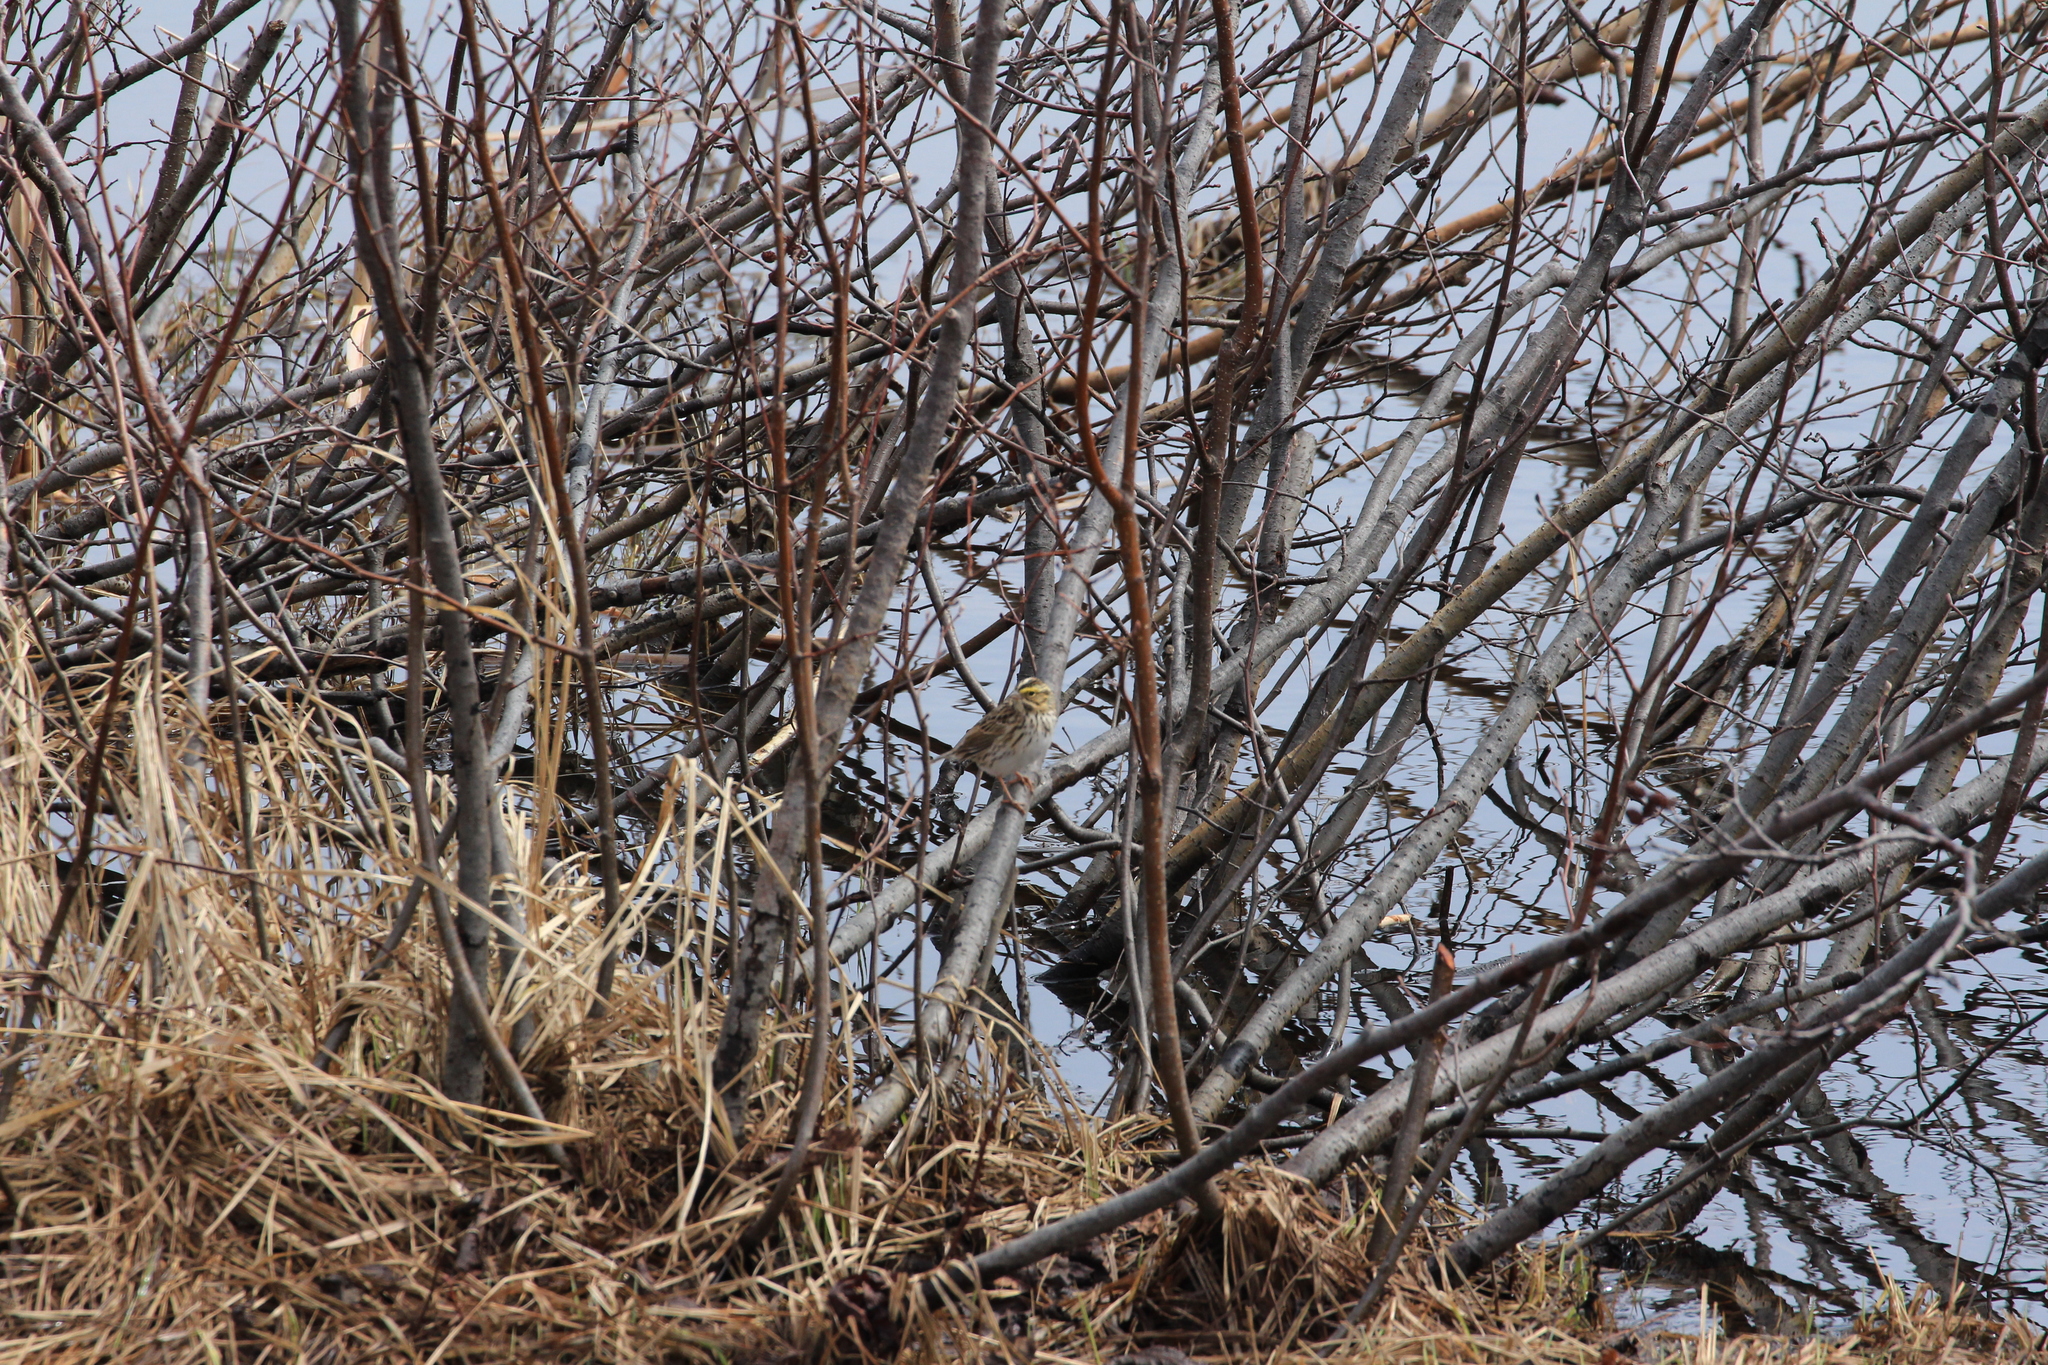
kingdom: Animalia
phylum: Chordata
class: Aves
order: Passeriformes
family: Passerellidae
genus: Passerculus
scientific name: Passerculus sandwichensis
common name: Savannah sparrow
